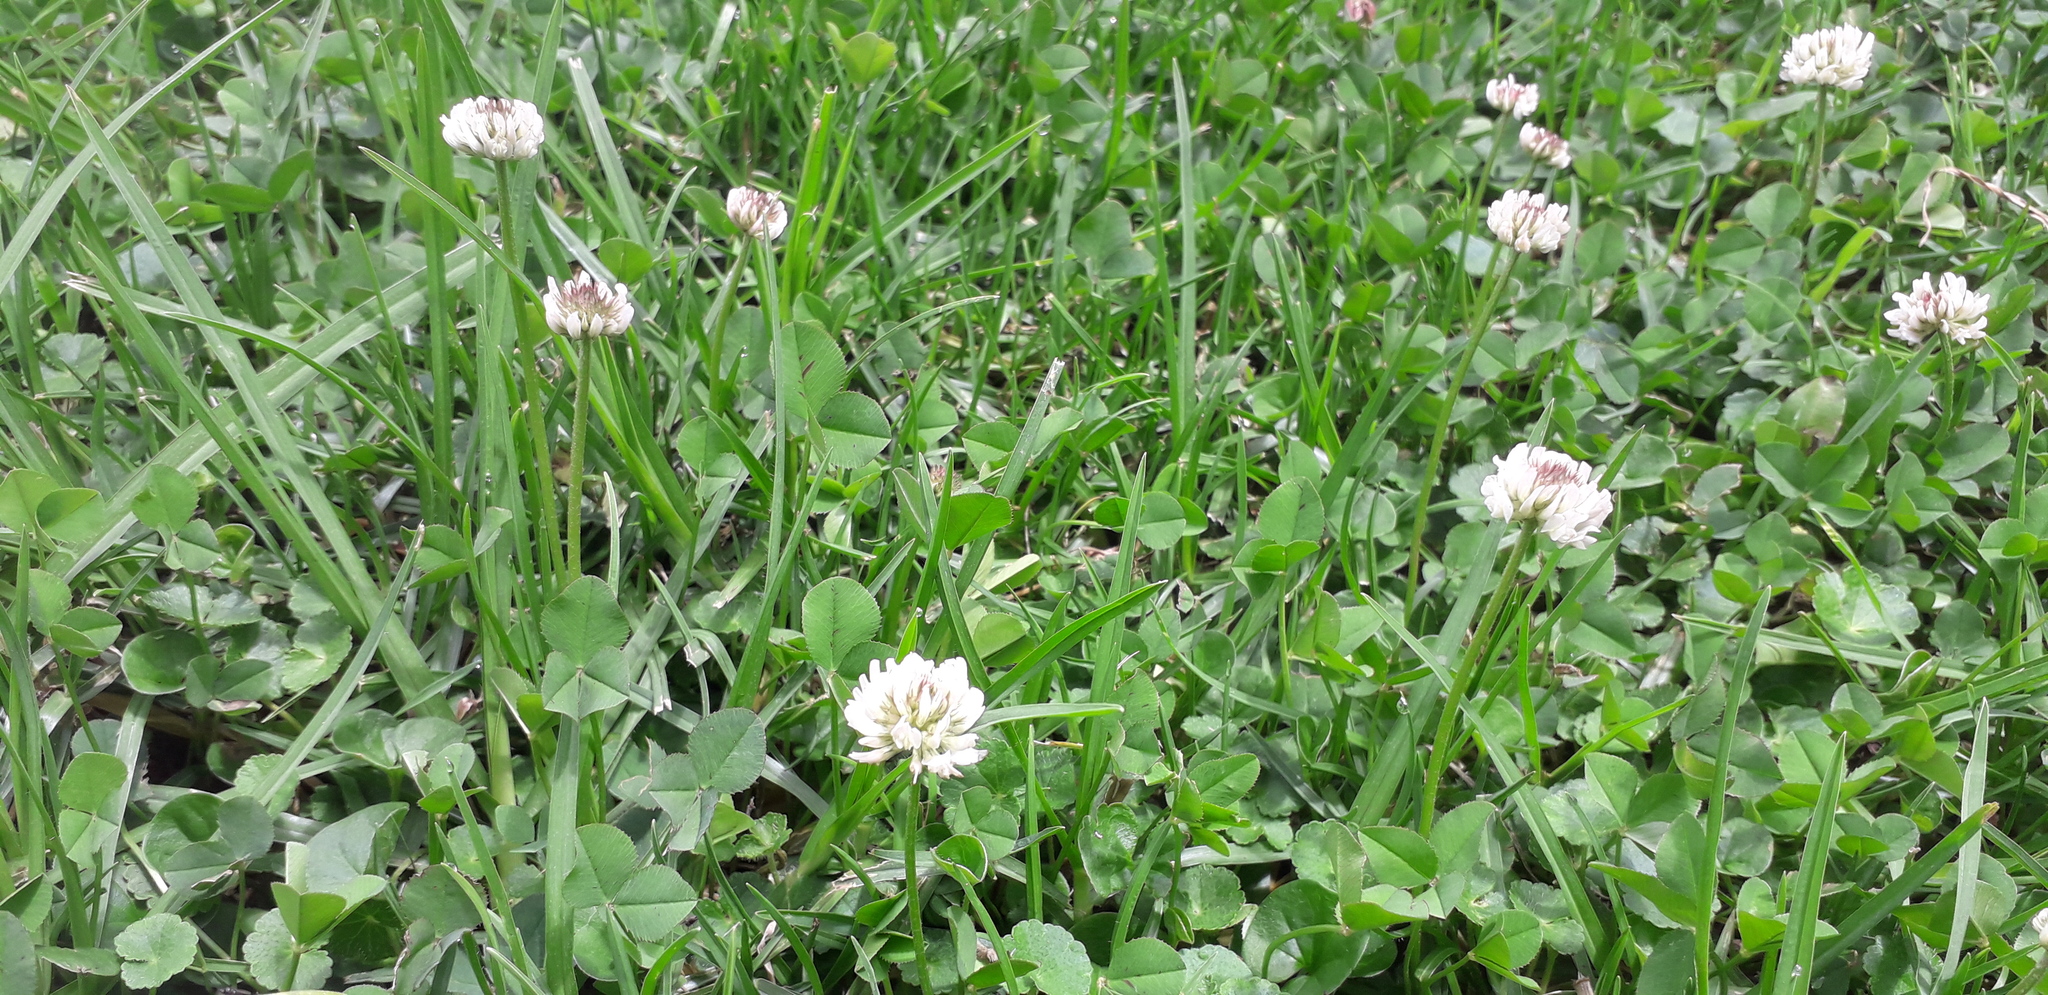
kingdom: Plantae
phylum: Tracheophyta
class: Magnoliopsida
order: Fabales
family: Fabaceae
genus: Trifolium
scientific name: Trifolium repens
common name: White clover
